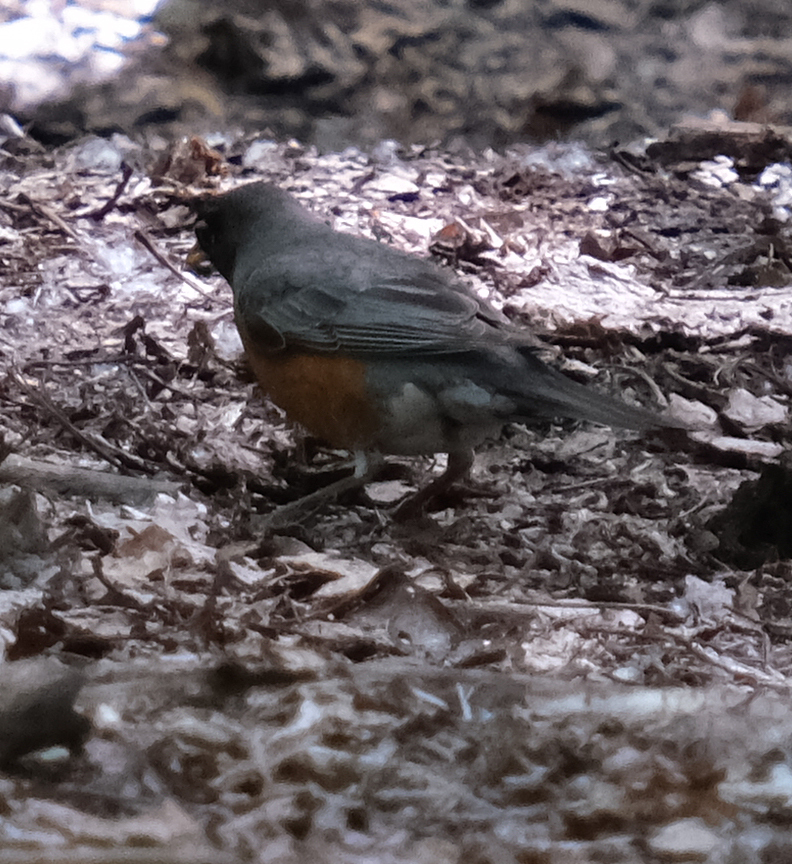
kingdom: Animalia
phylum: Chordata
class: Aves
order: Passeriformes
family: Turdidae
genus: Turdus
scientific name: Turdus migratorius
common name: American robin
